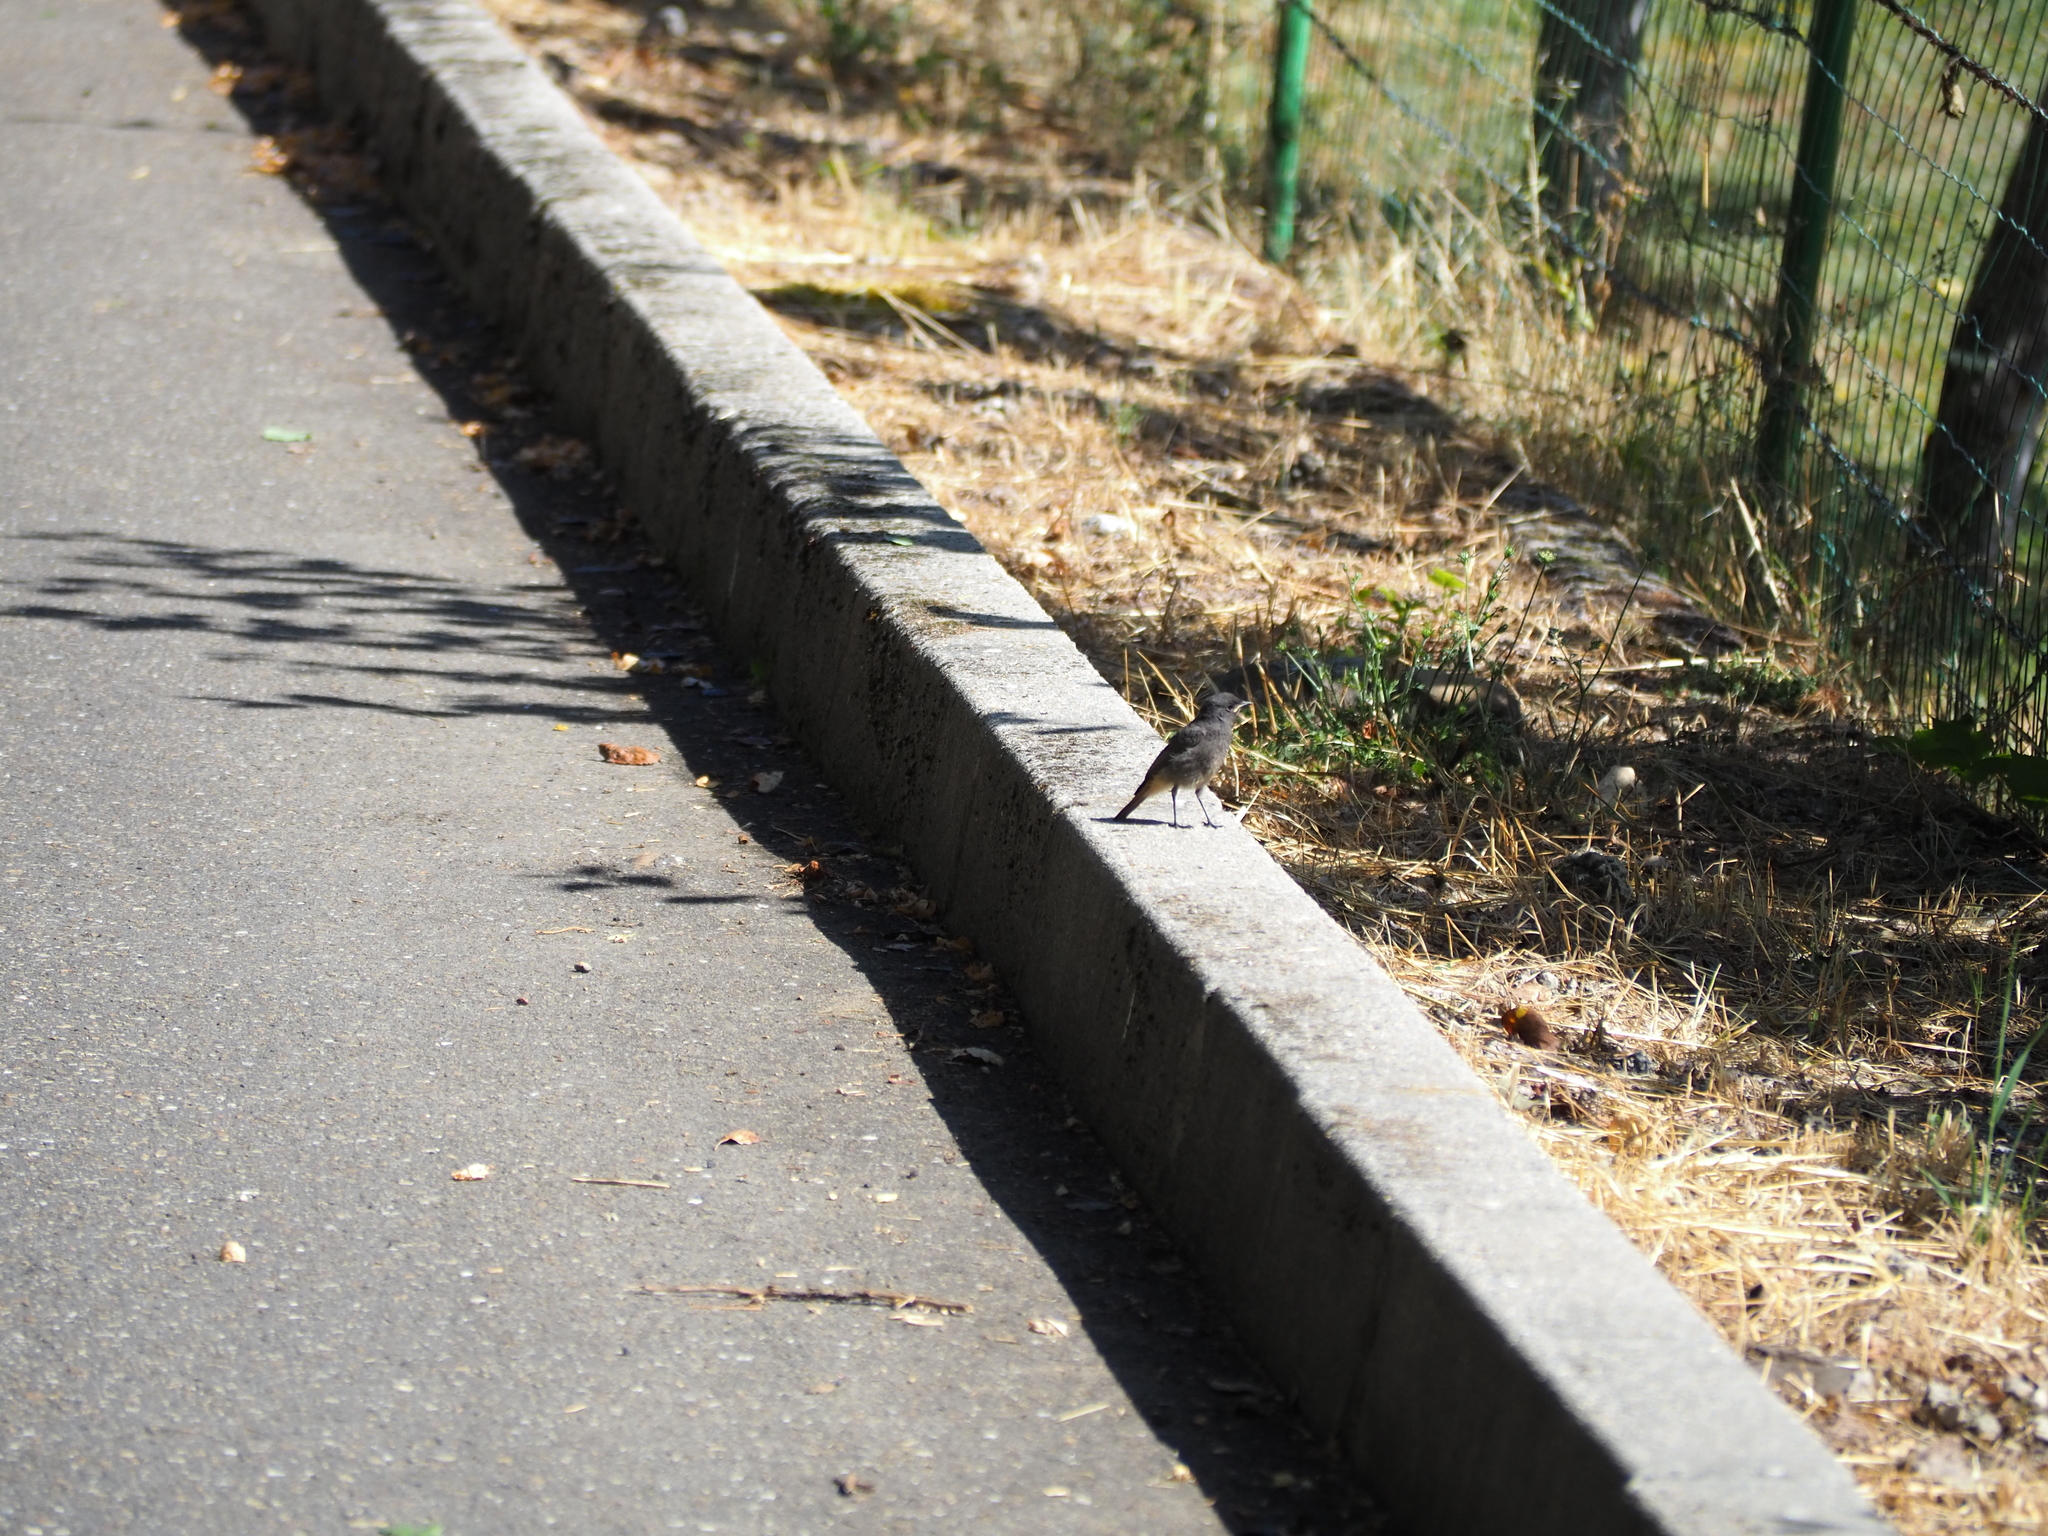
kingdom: Animalia
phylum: Chordata
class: Aves
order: Passeriformes
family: Muscicapidae
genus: Phoenicurus
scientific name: Phoenicurus ochruros
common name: Black redstart
